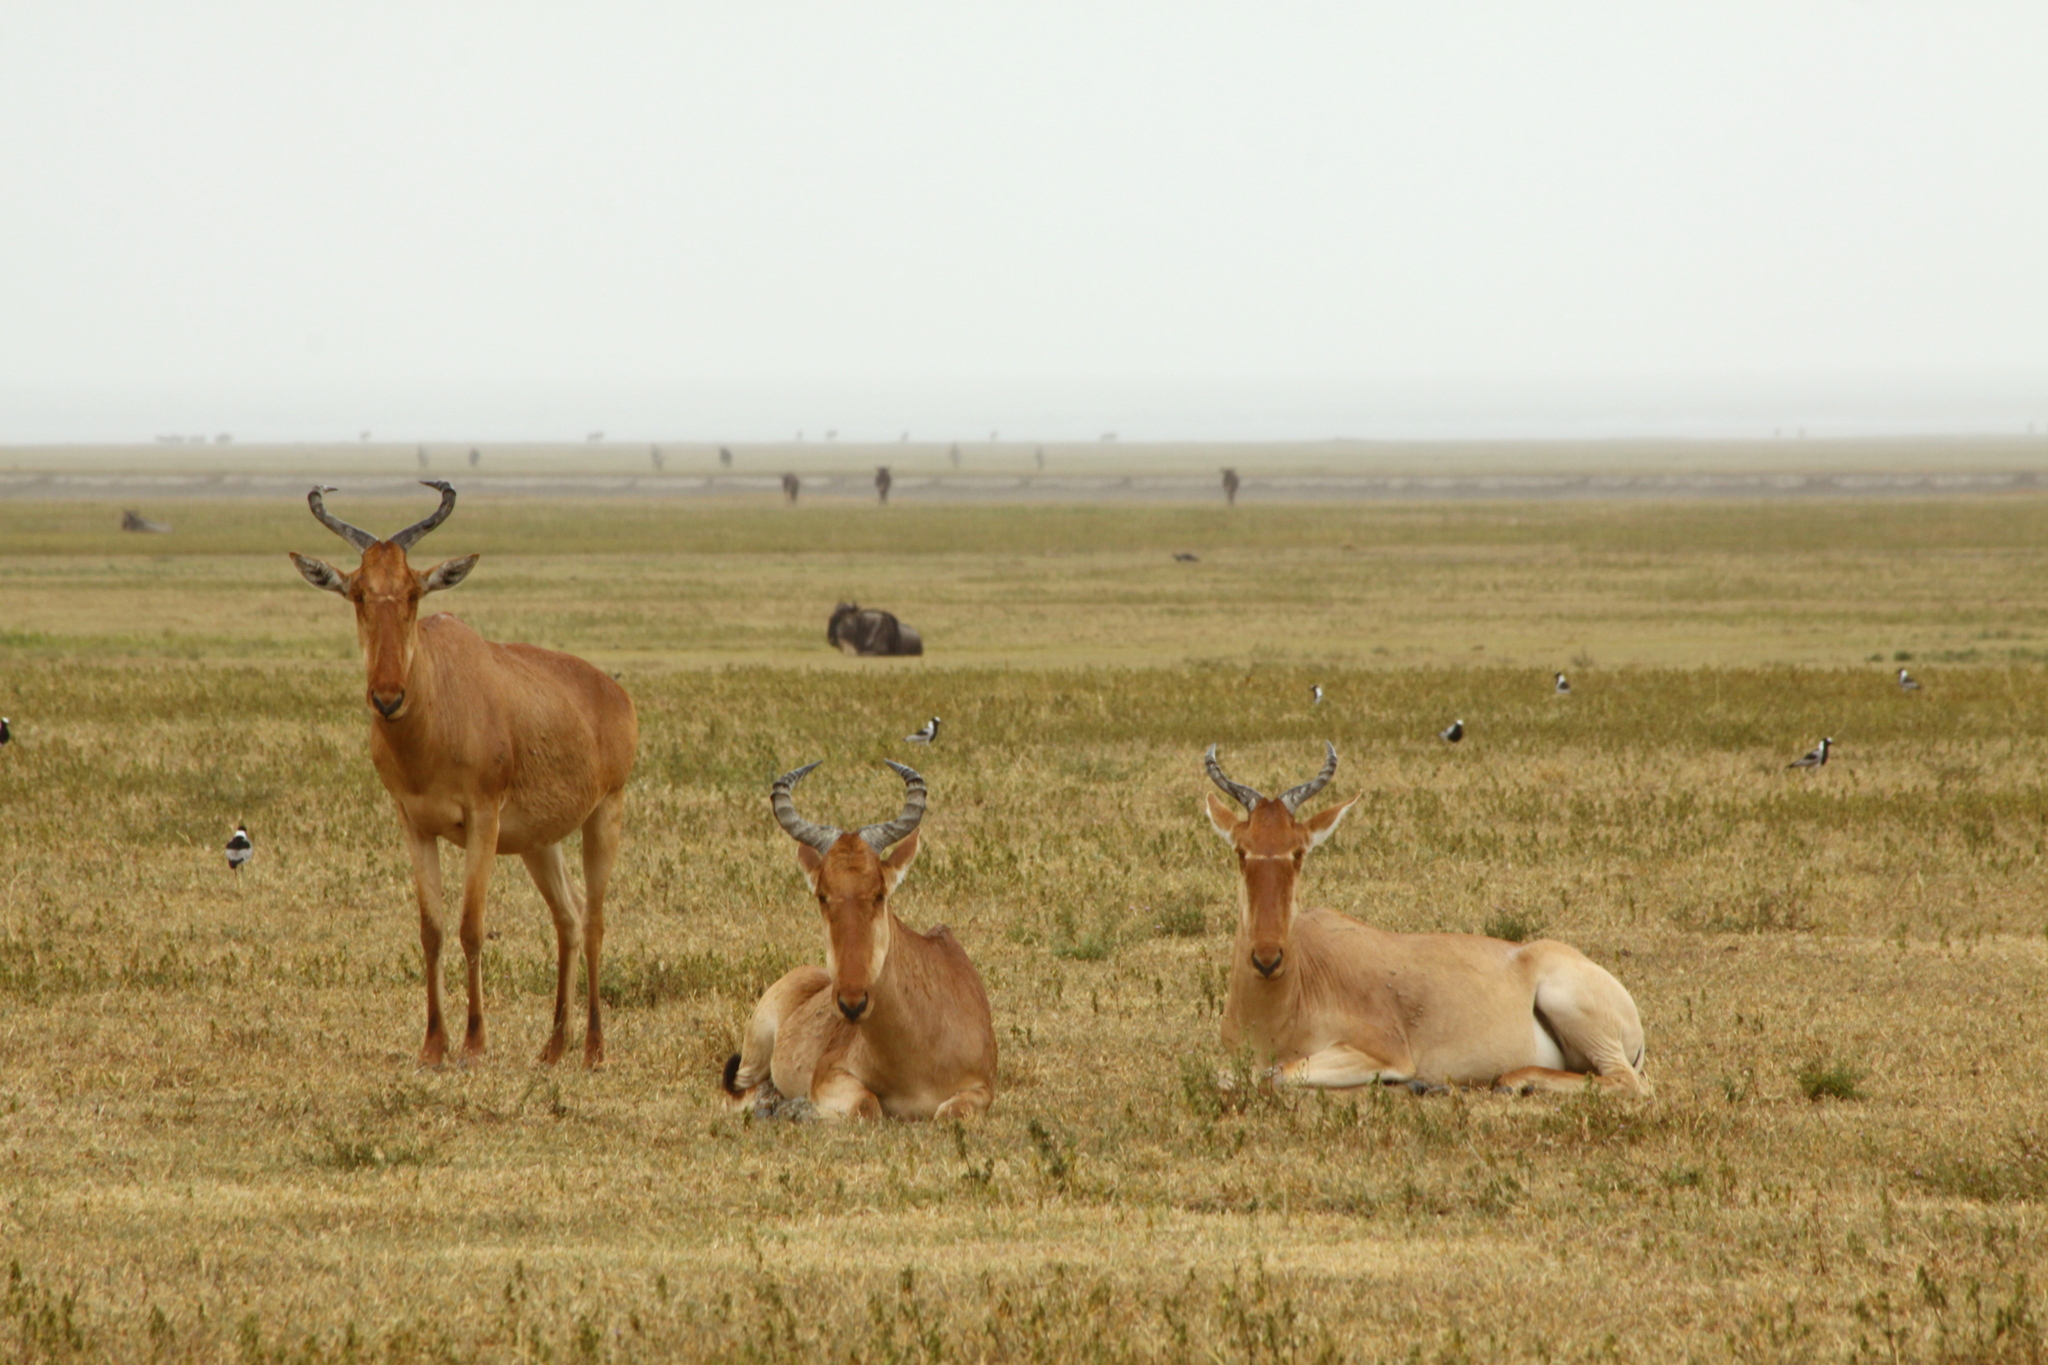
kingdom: Animalia
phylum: Chordata
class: Mammalia
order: Artiodactyla
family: Bovidae
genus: Alcelaphus
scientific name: Alcelaphus buselaphus
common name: Hartebeest
